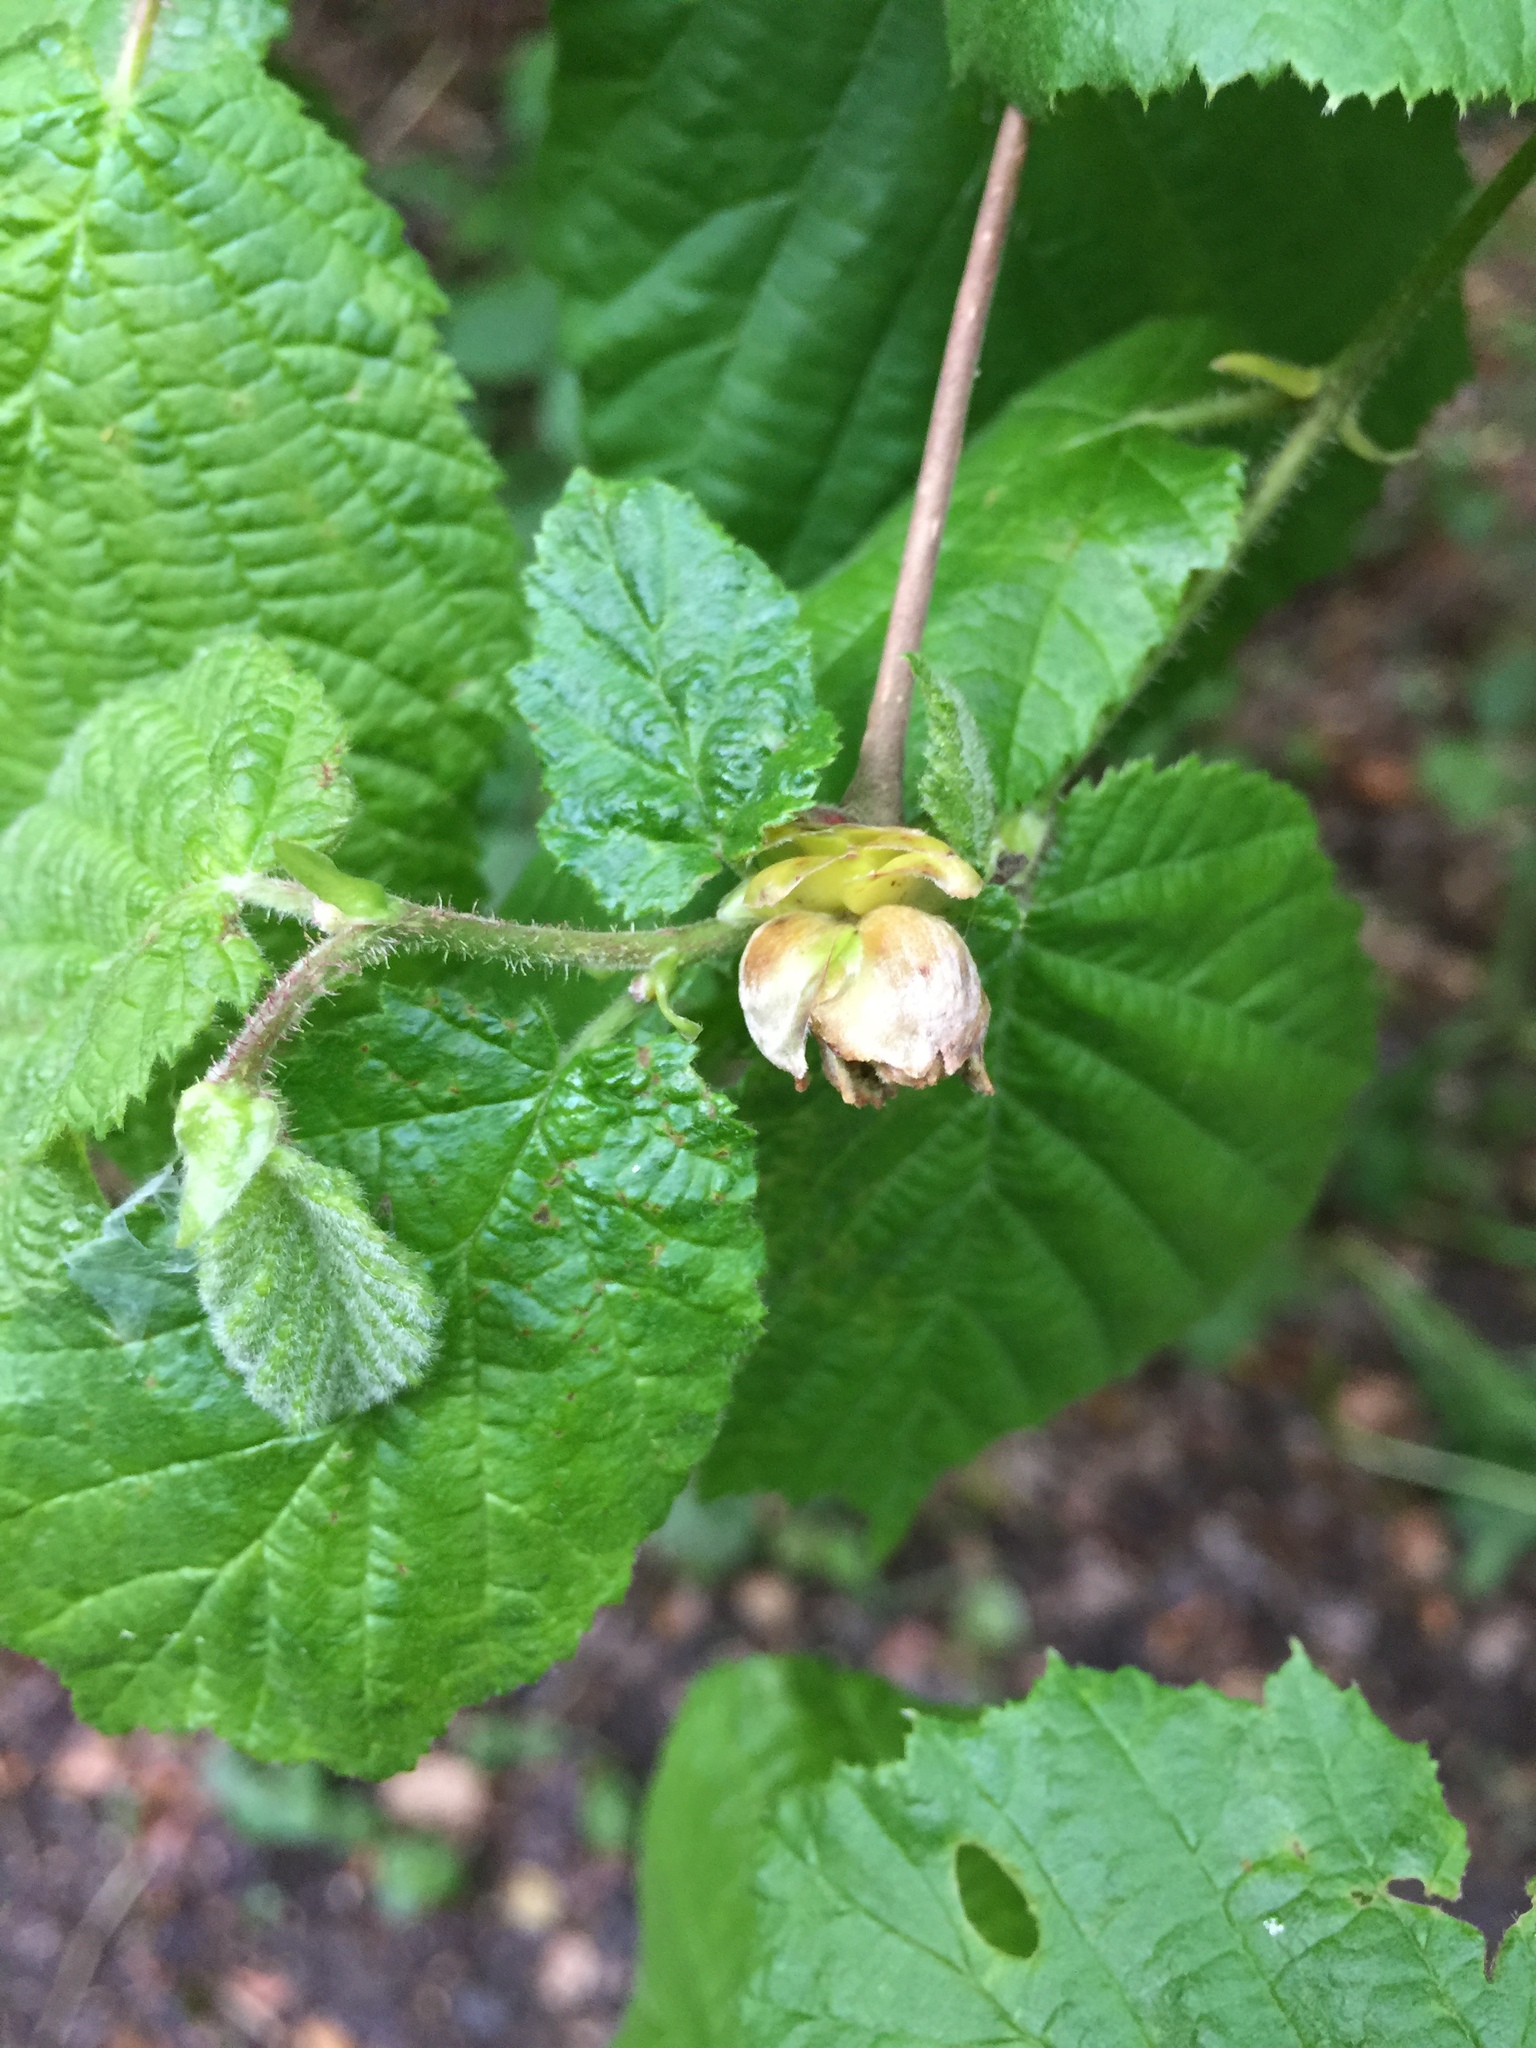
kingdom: Animalia
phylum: Arthropoda
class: Arachnida
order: Trombidiformes
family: Phytoptidae
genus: Phytoptus
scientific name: Phytoptus avellanae
